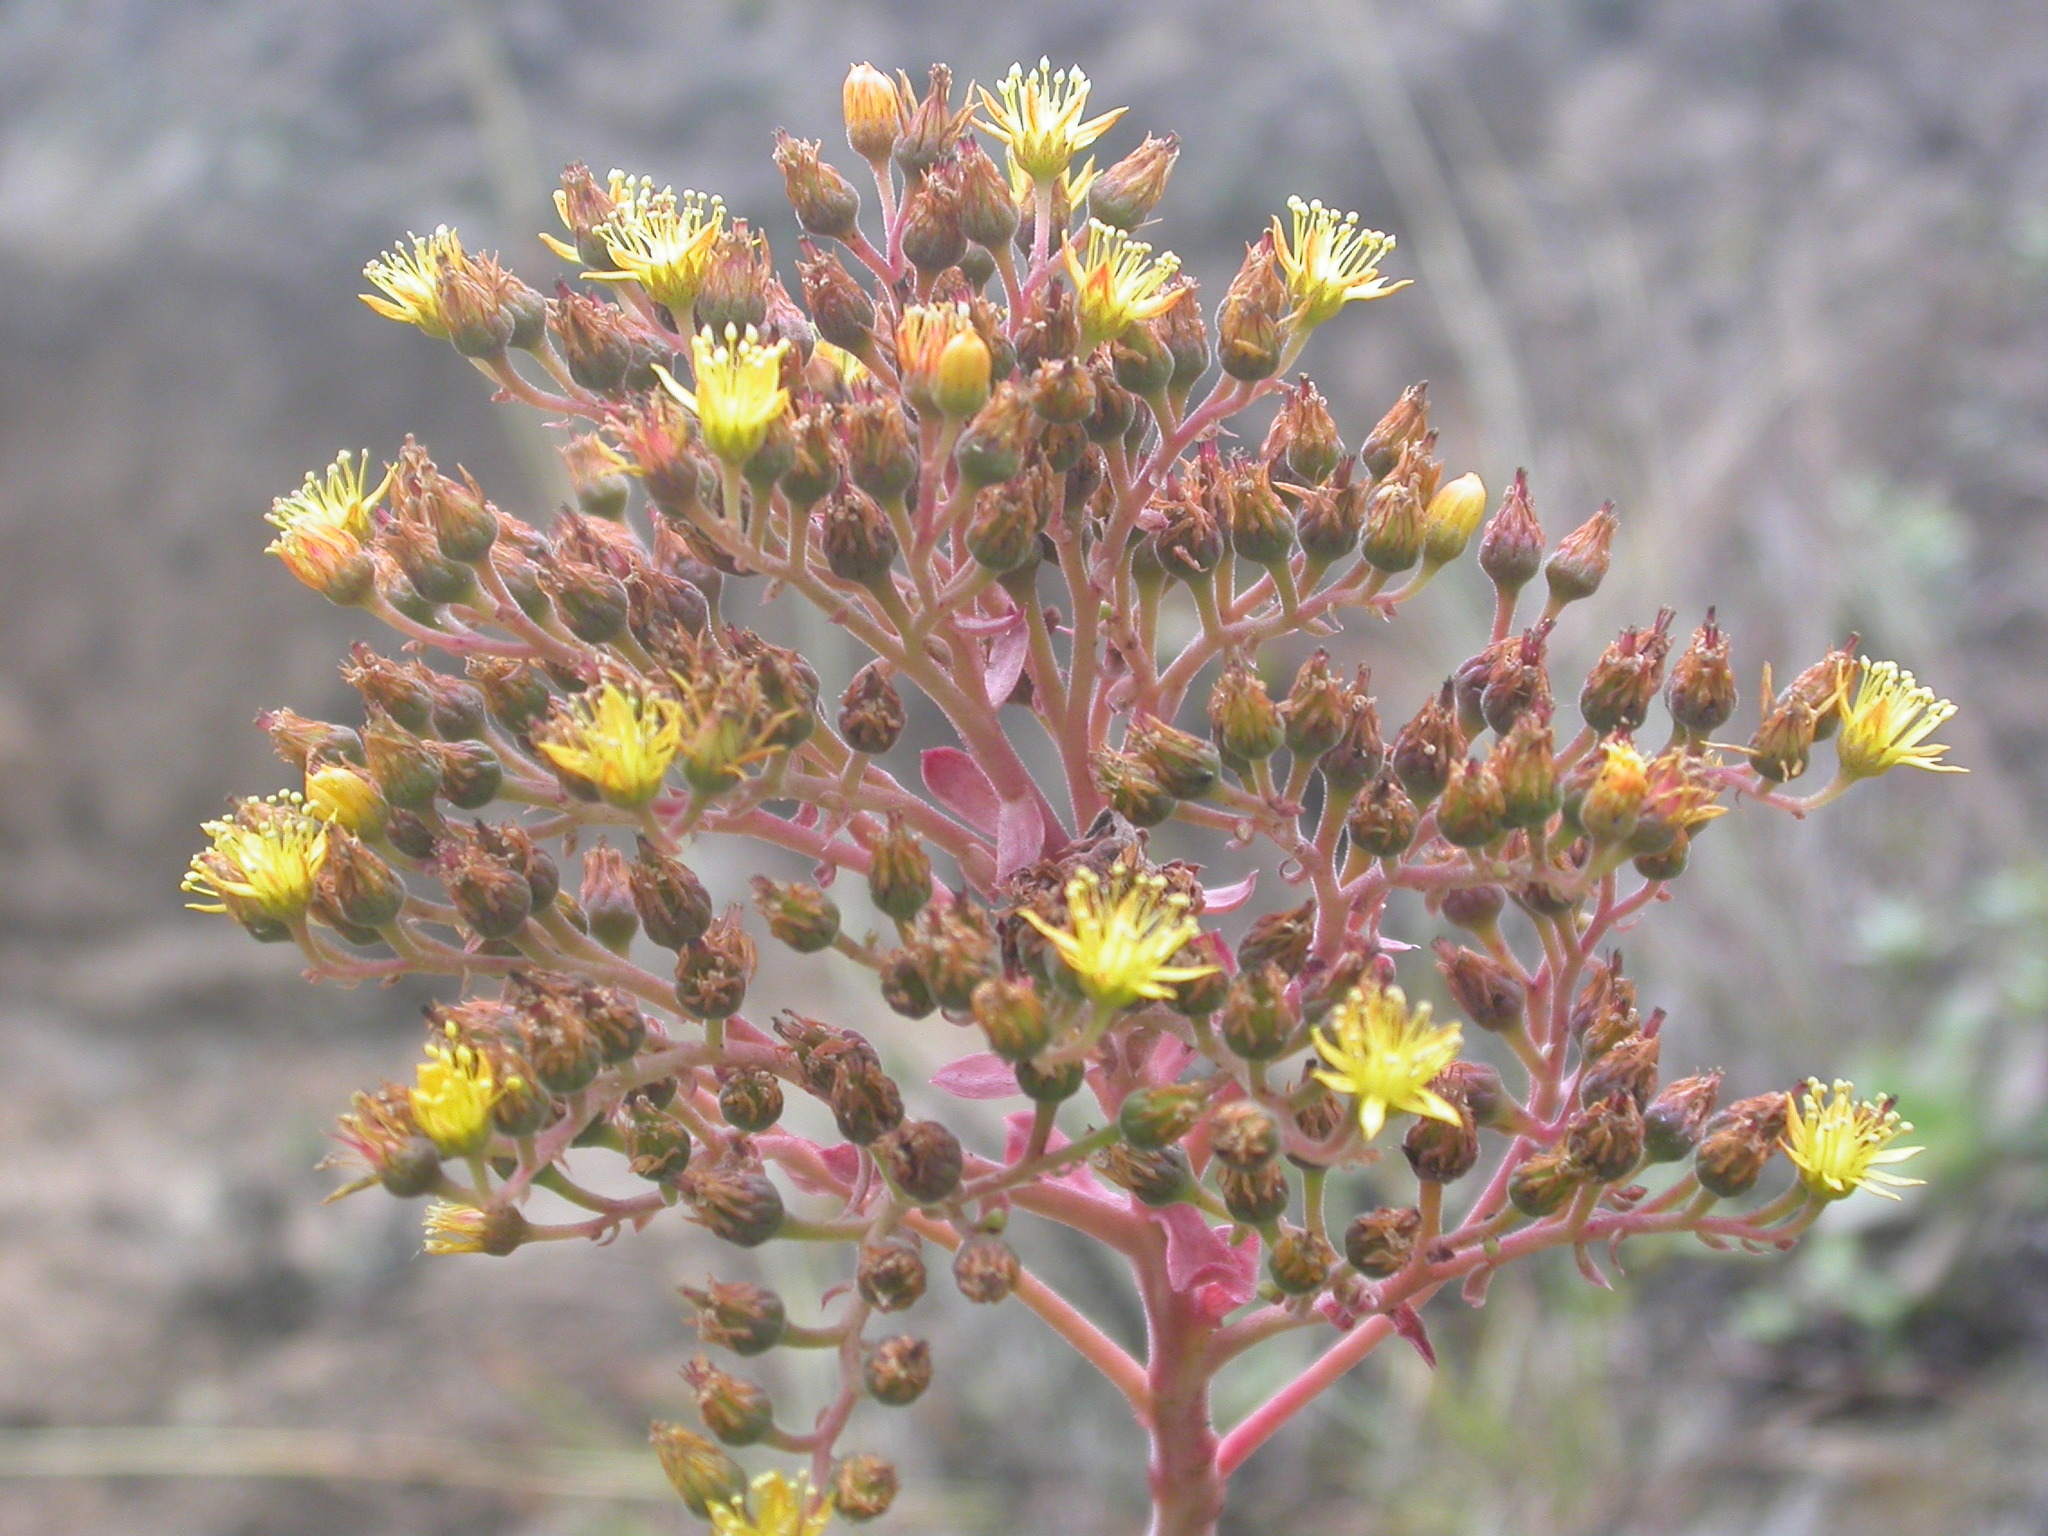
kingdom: Plantae
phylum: Tracheophyta
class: Magnoliopsida
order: Saxifragales
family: Crassulaceae
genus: Aeonium
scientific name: Aeonium gorgoneum
